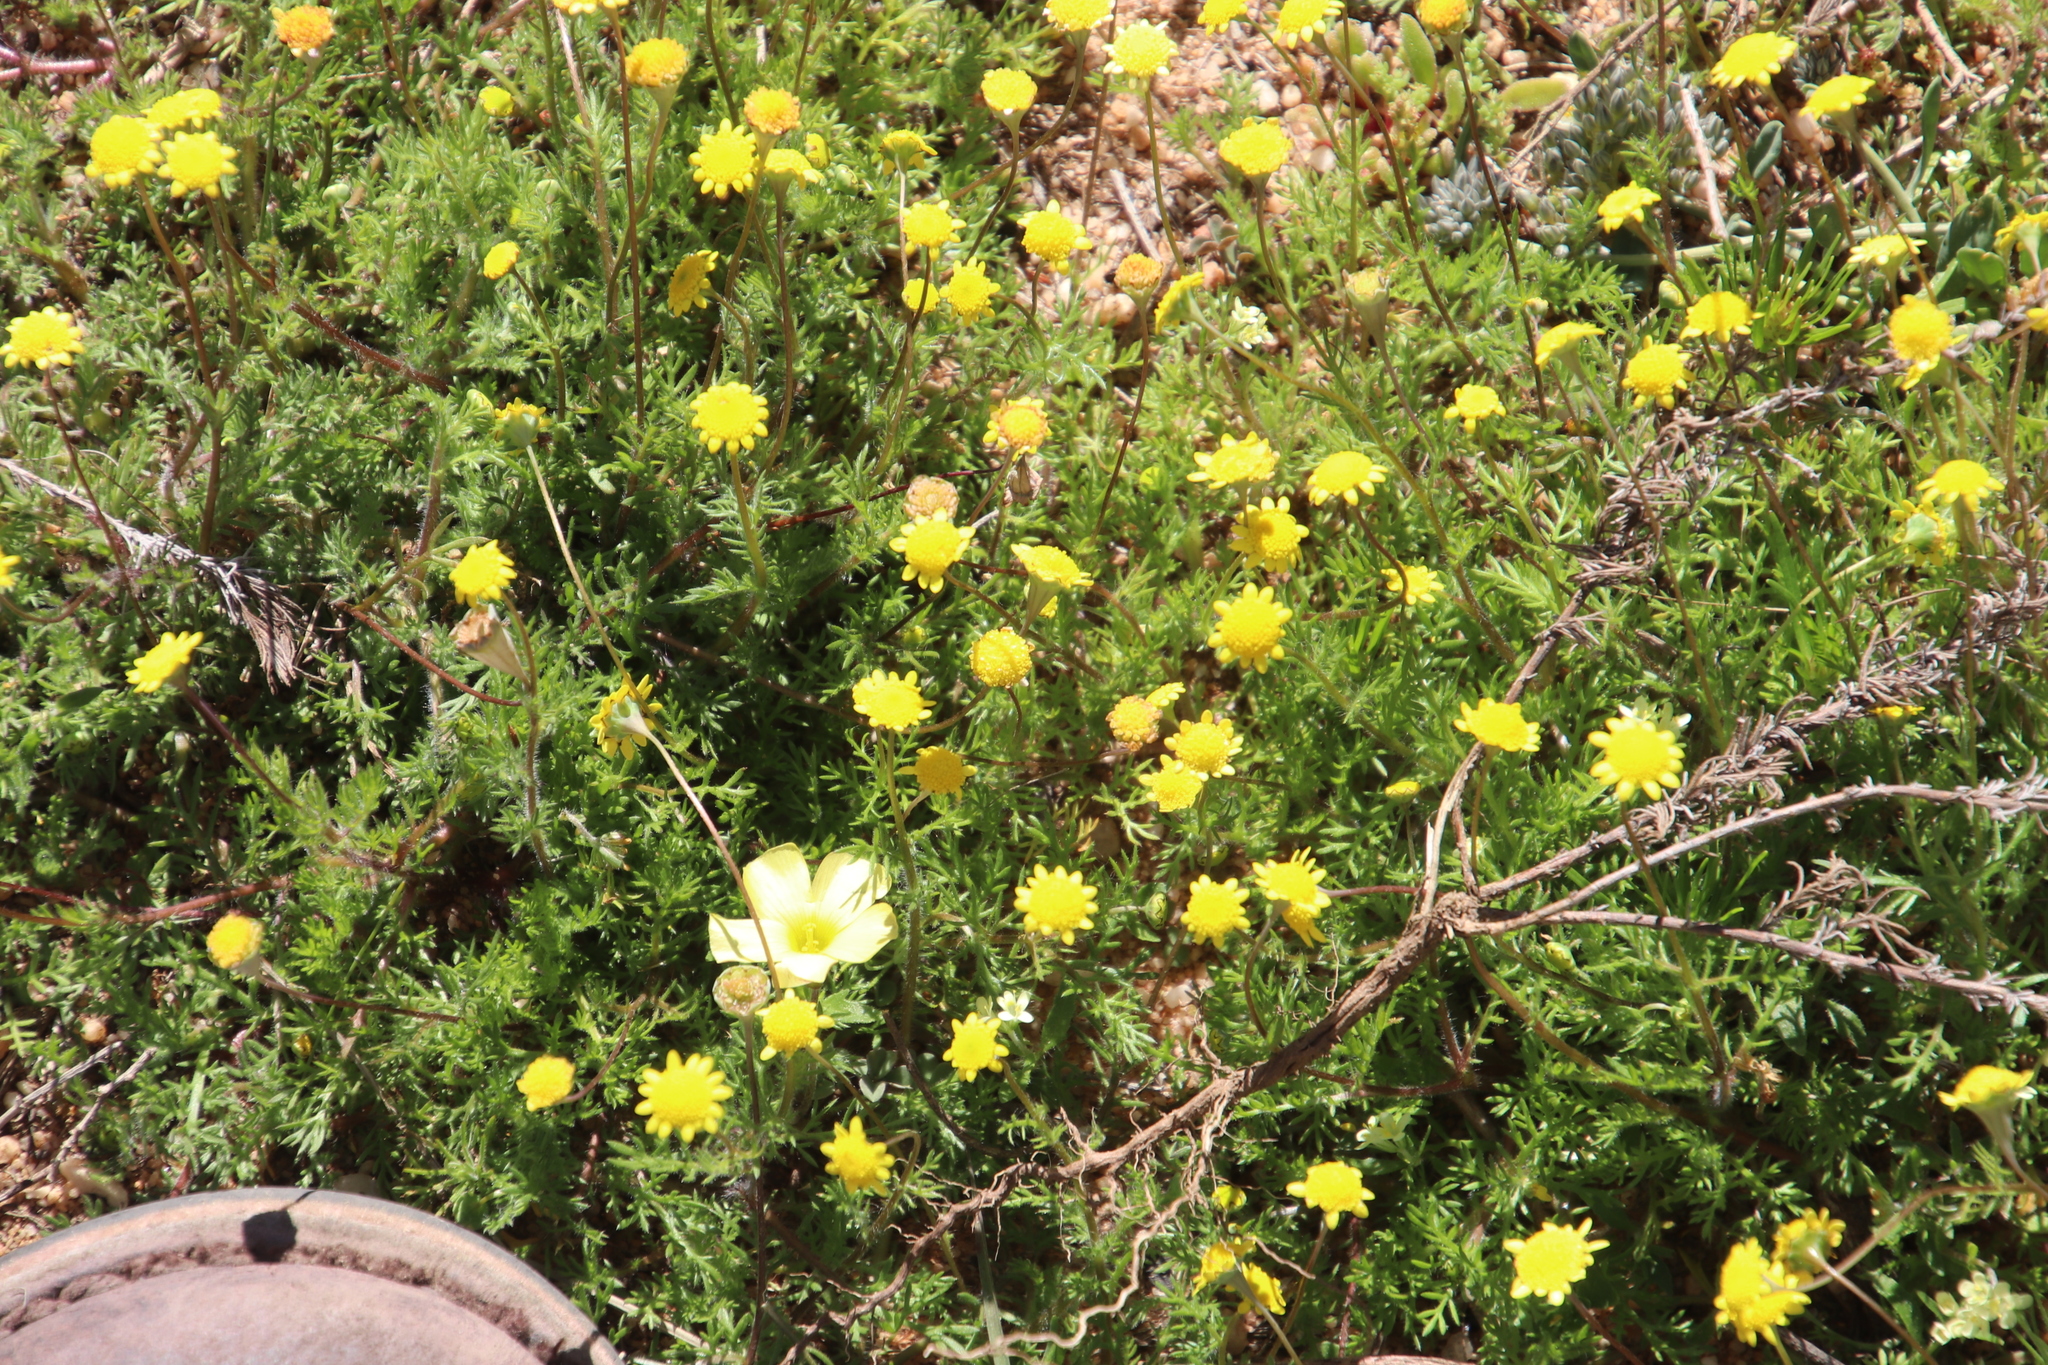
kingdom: Plantae
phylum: Tracheophyta
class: Magnoliopsida
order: Asterales
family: Asteraceae
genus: Cotula
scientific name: Cotula pruinosa
